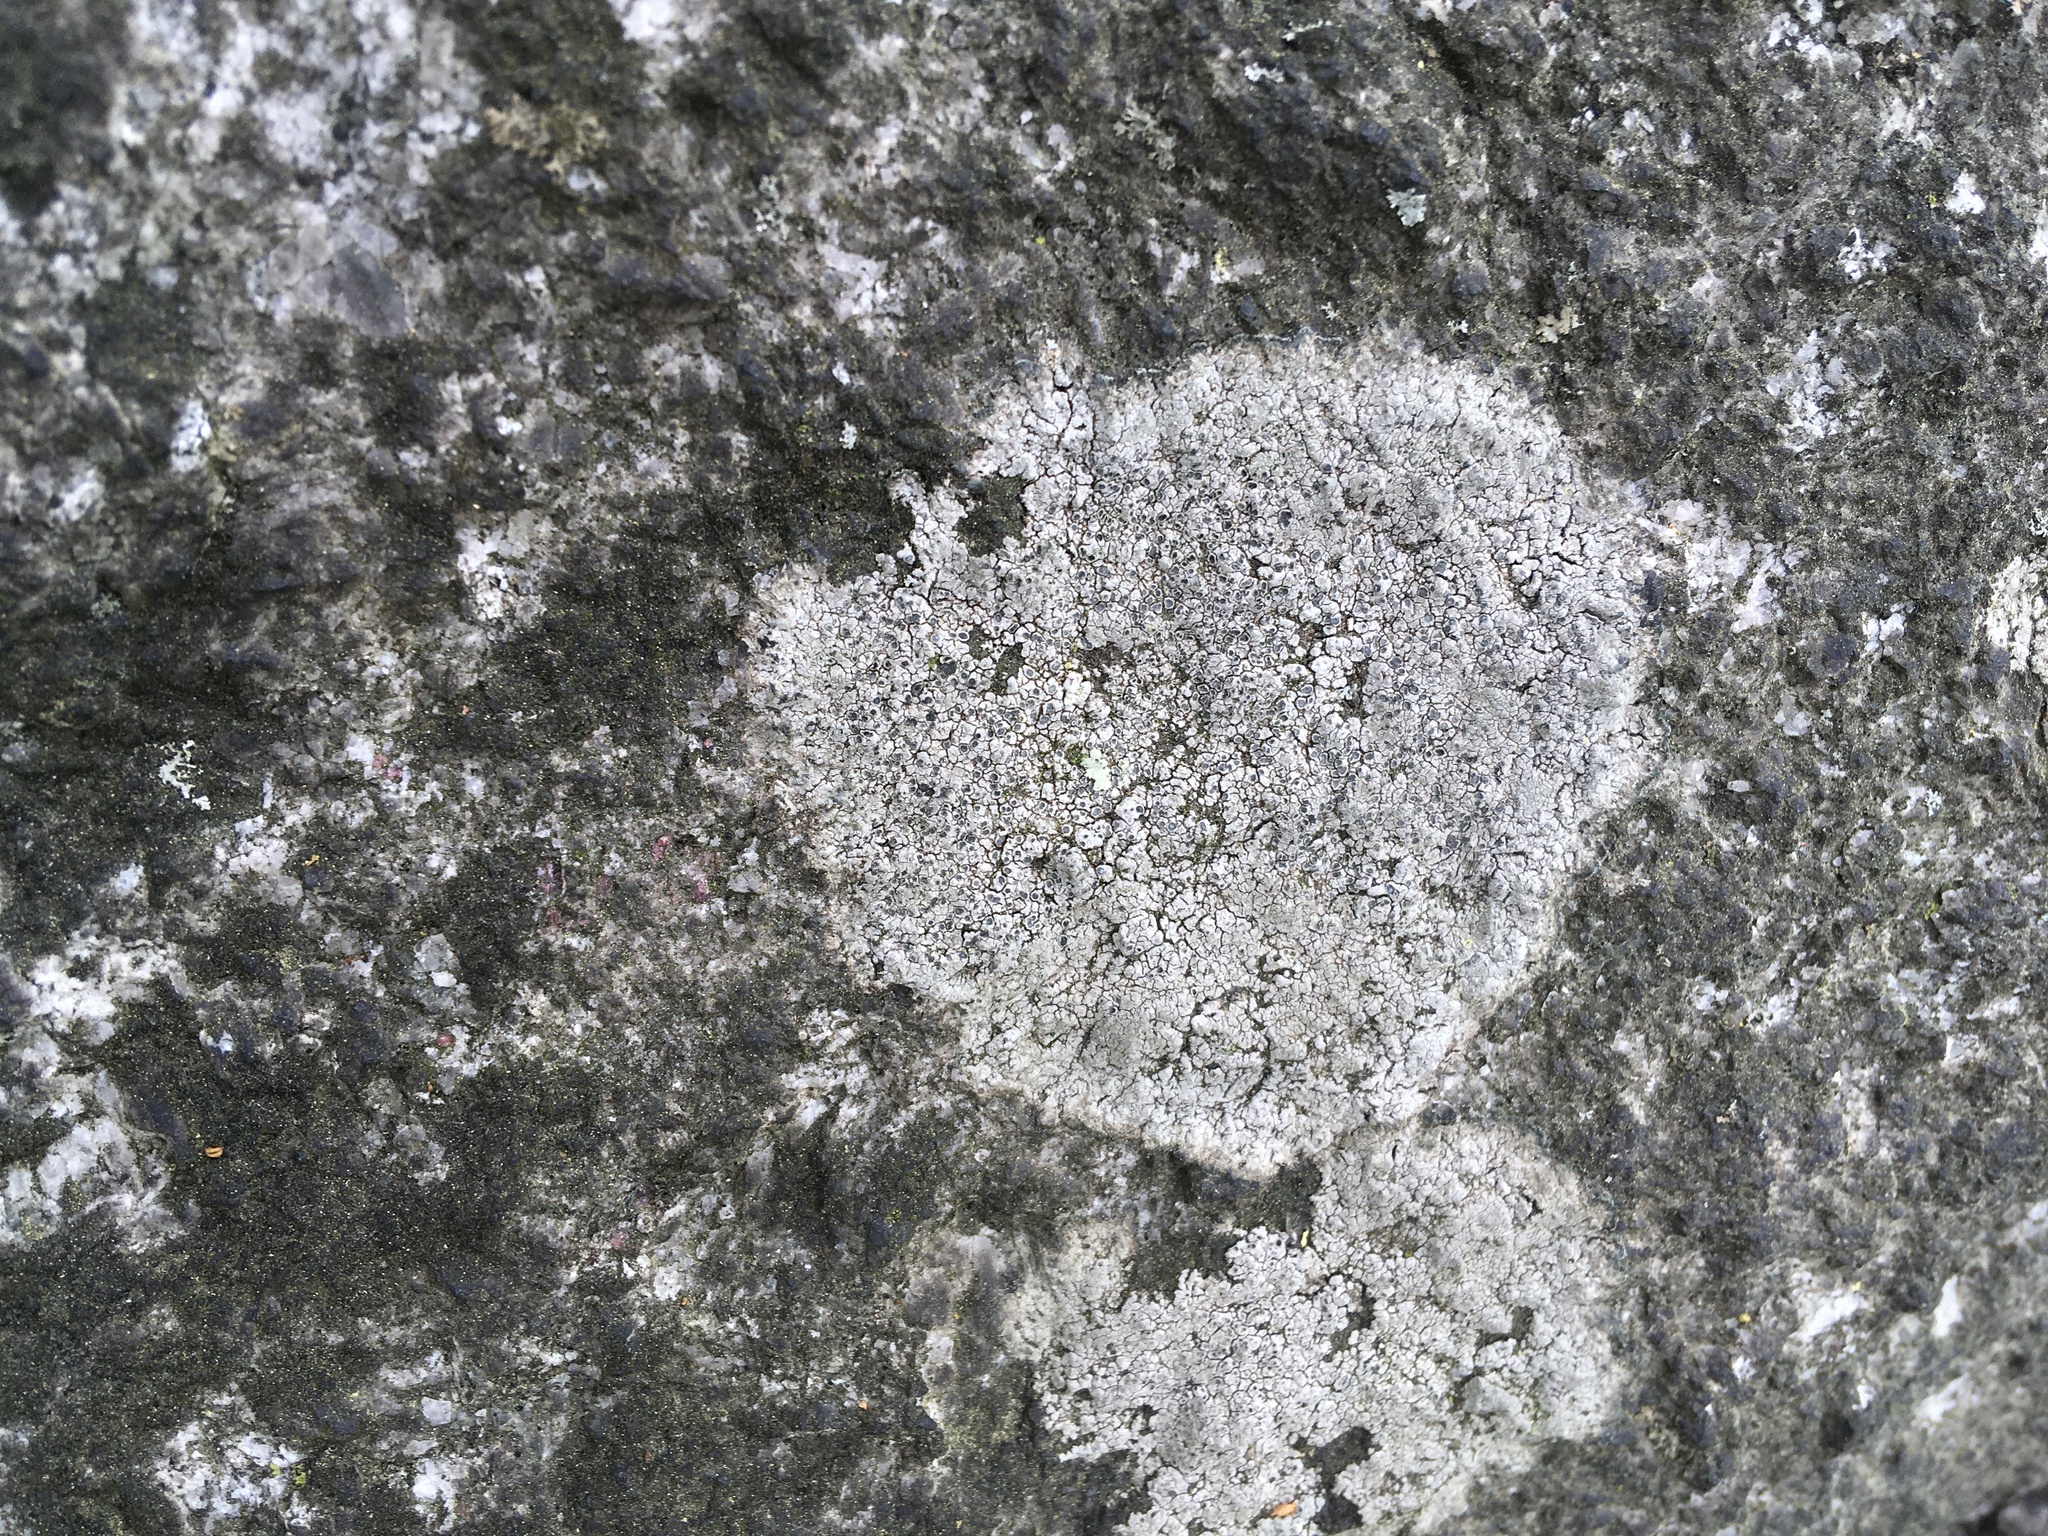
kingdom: Fungi
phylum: Ascomycota
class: Lecanoromycetes
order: Lecideales
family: Lecideaceae
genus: Porpidia
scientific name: Porpidia albocaerulescens
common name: Smokey-eyed boulder lichen
